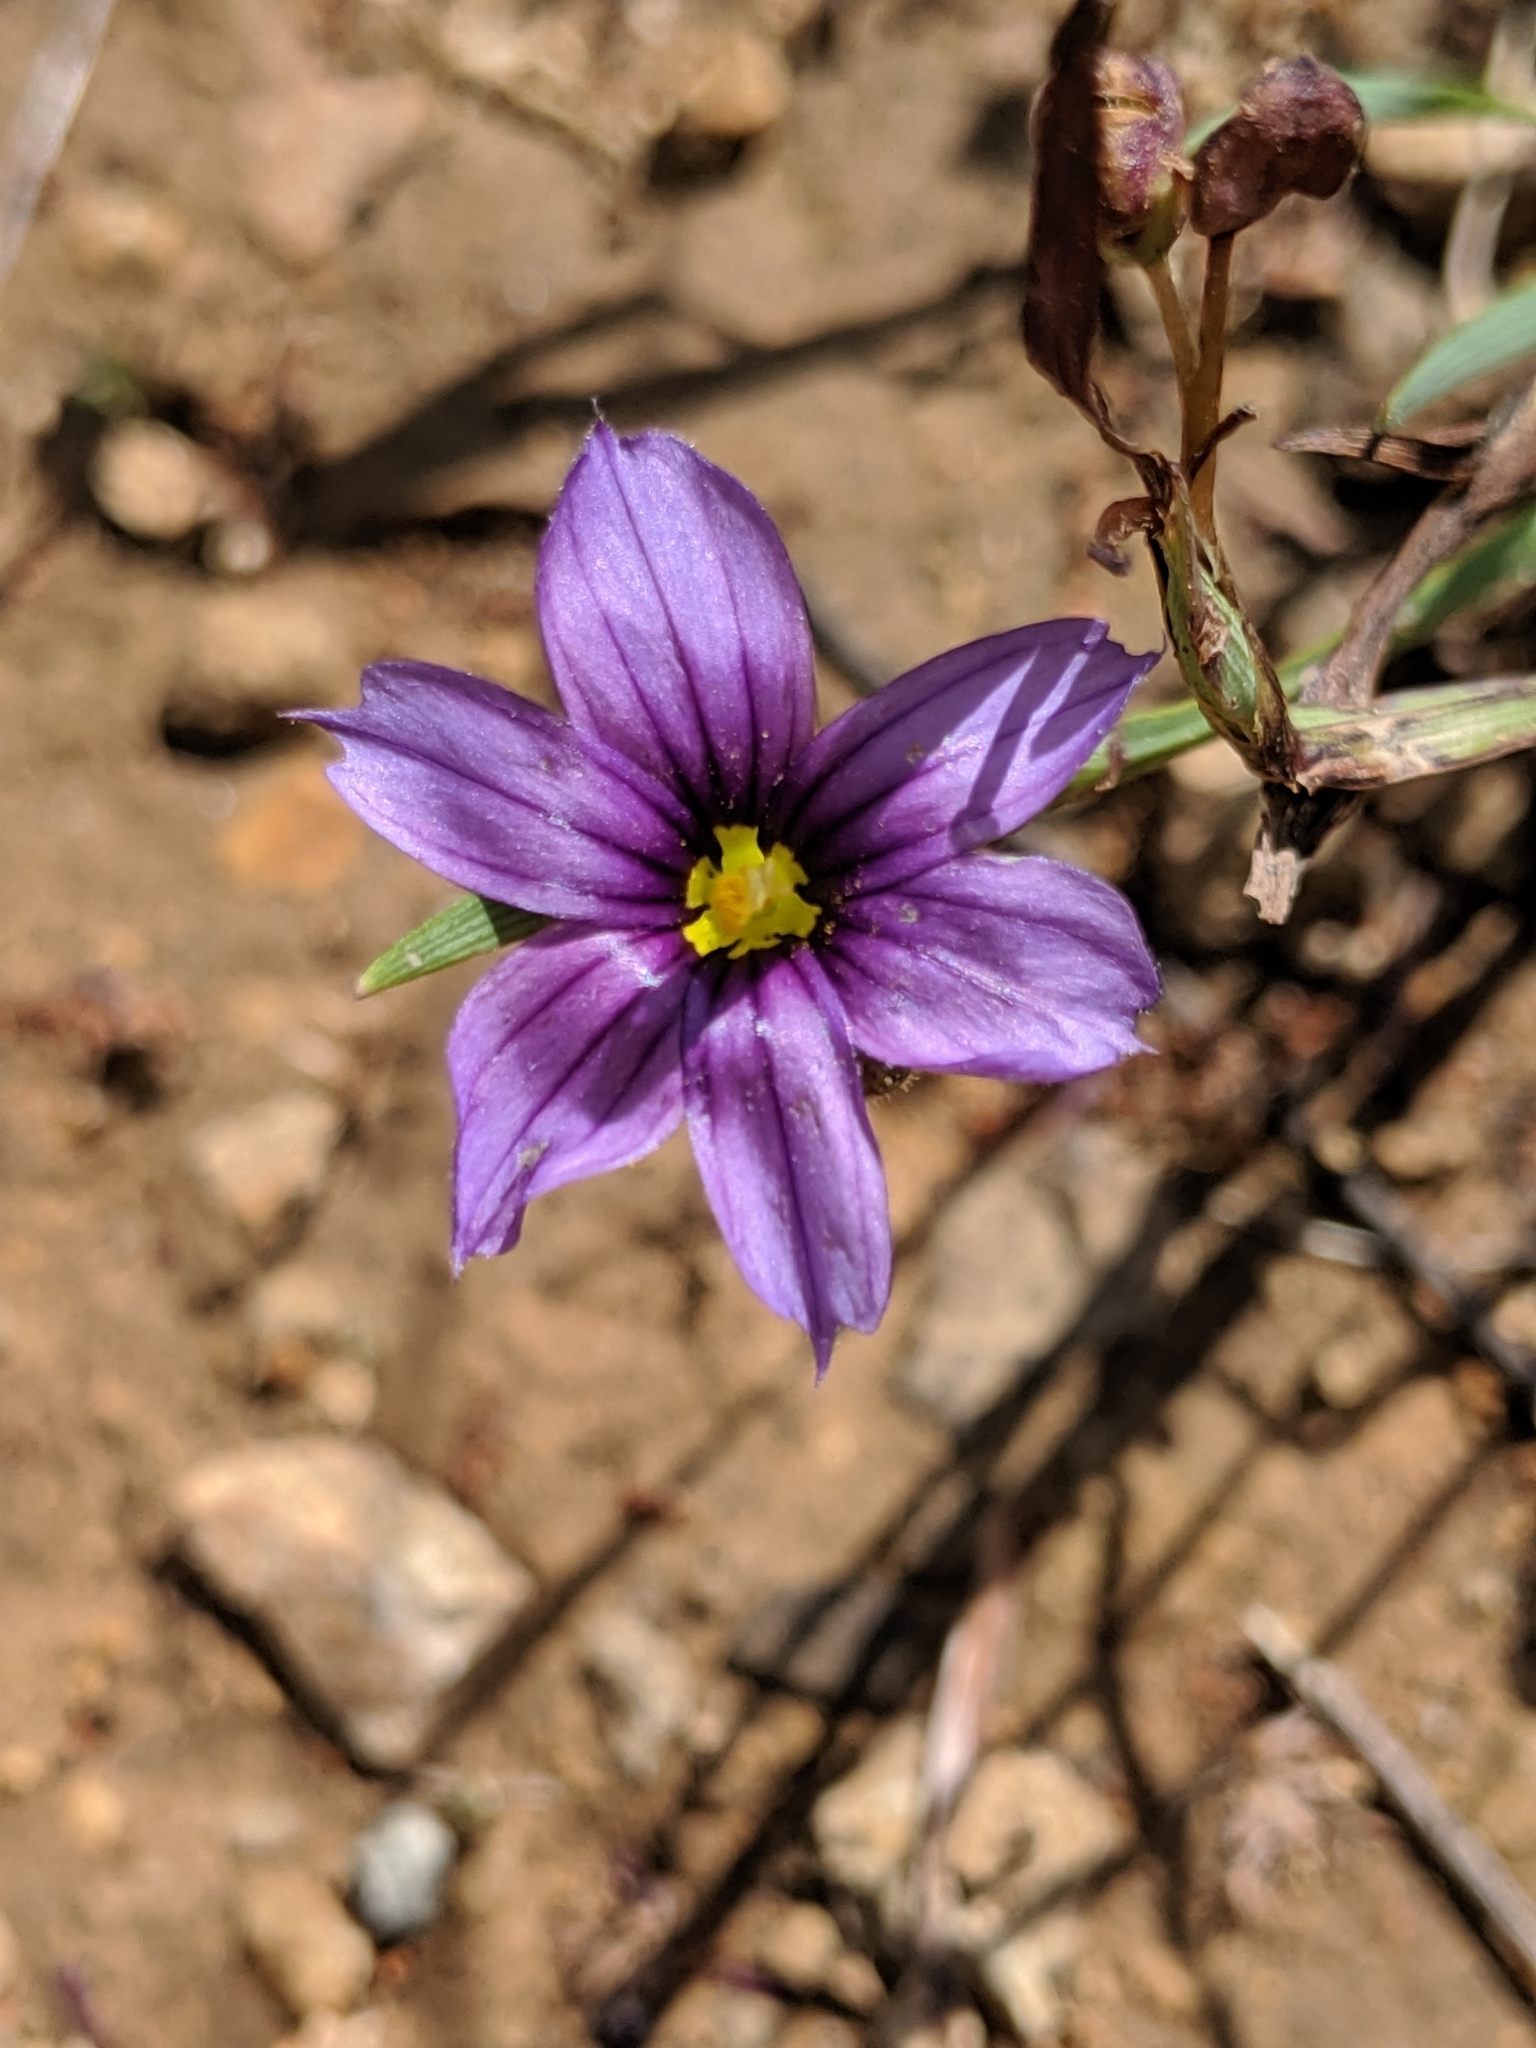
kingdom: Plantae
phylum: Tracheophyta
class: Liliopsida
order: Asparagales
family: Iridaceae
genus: Sisyrinchium
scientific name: Sisyrinchium bellum
